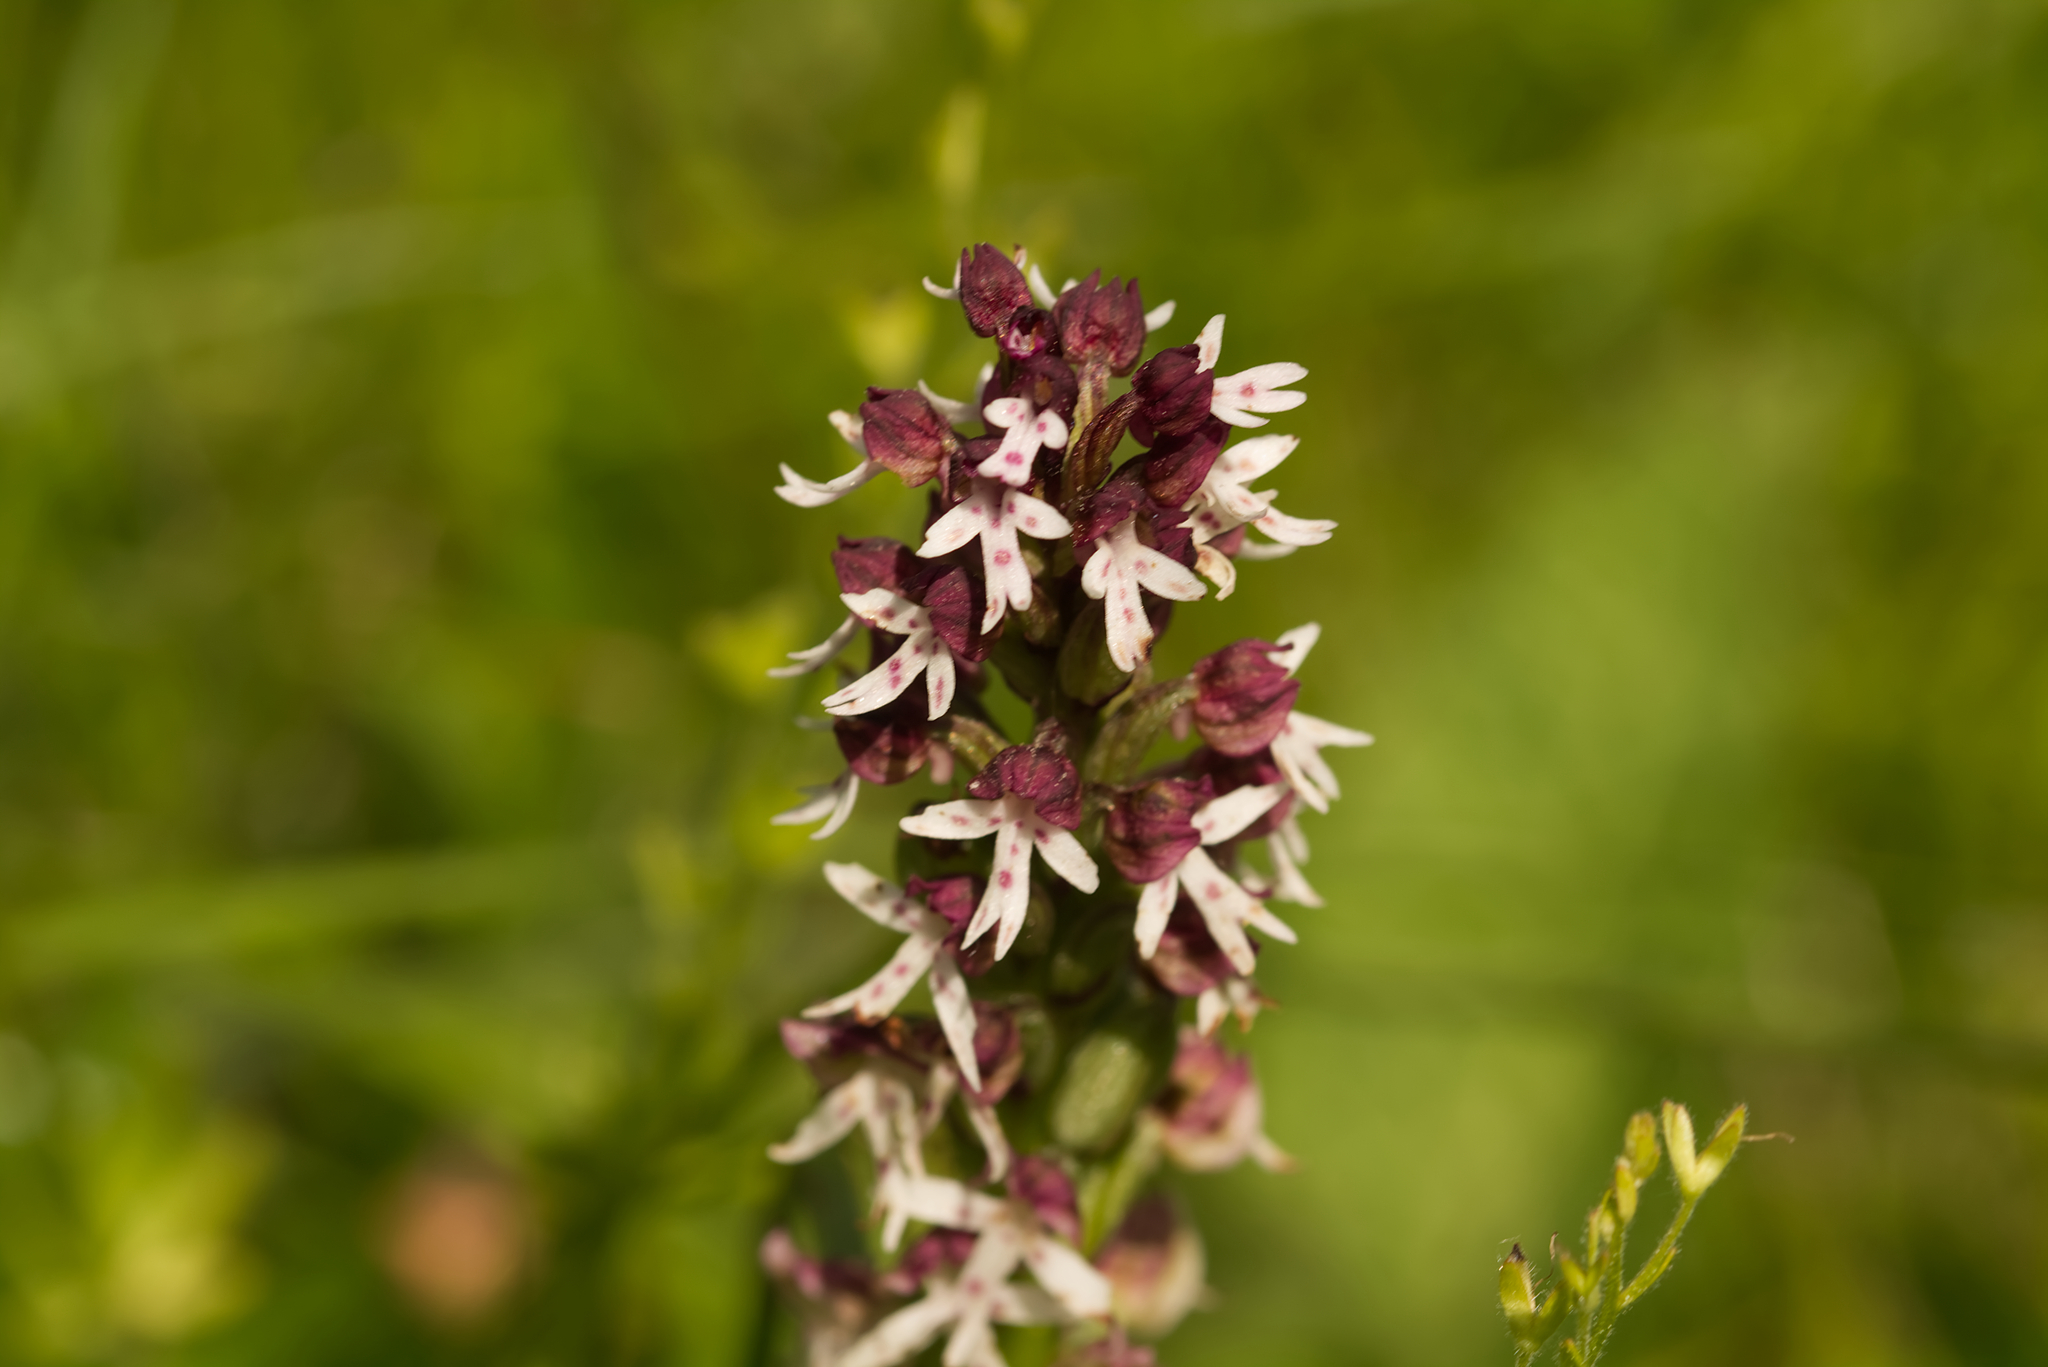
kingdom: Plantae
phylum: Tracheophyta
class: Liliopsida
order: Asparagales
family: Orchidaceae
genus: Neotinea
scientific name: Neotinea ustulata
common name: Burnt orchid
